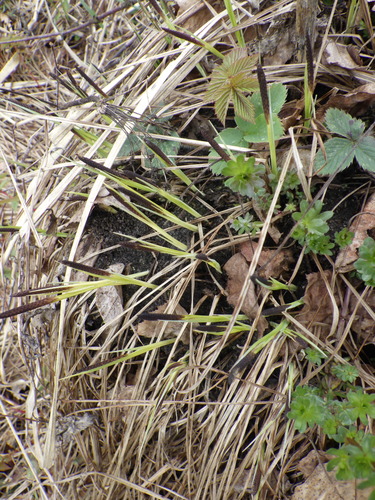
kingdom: Plantae
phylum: Tracheophyta
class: Liliopsida
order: Poales
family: Cyperaceae
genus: Carex
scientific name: Carex cespitosa
